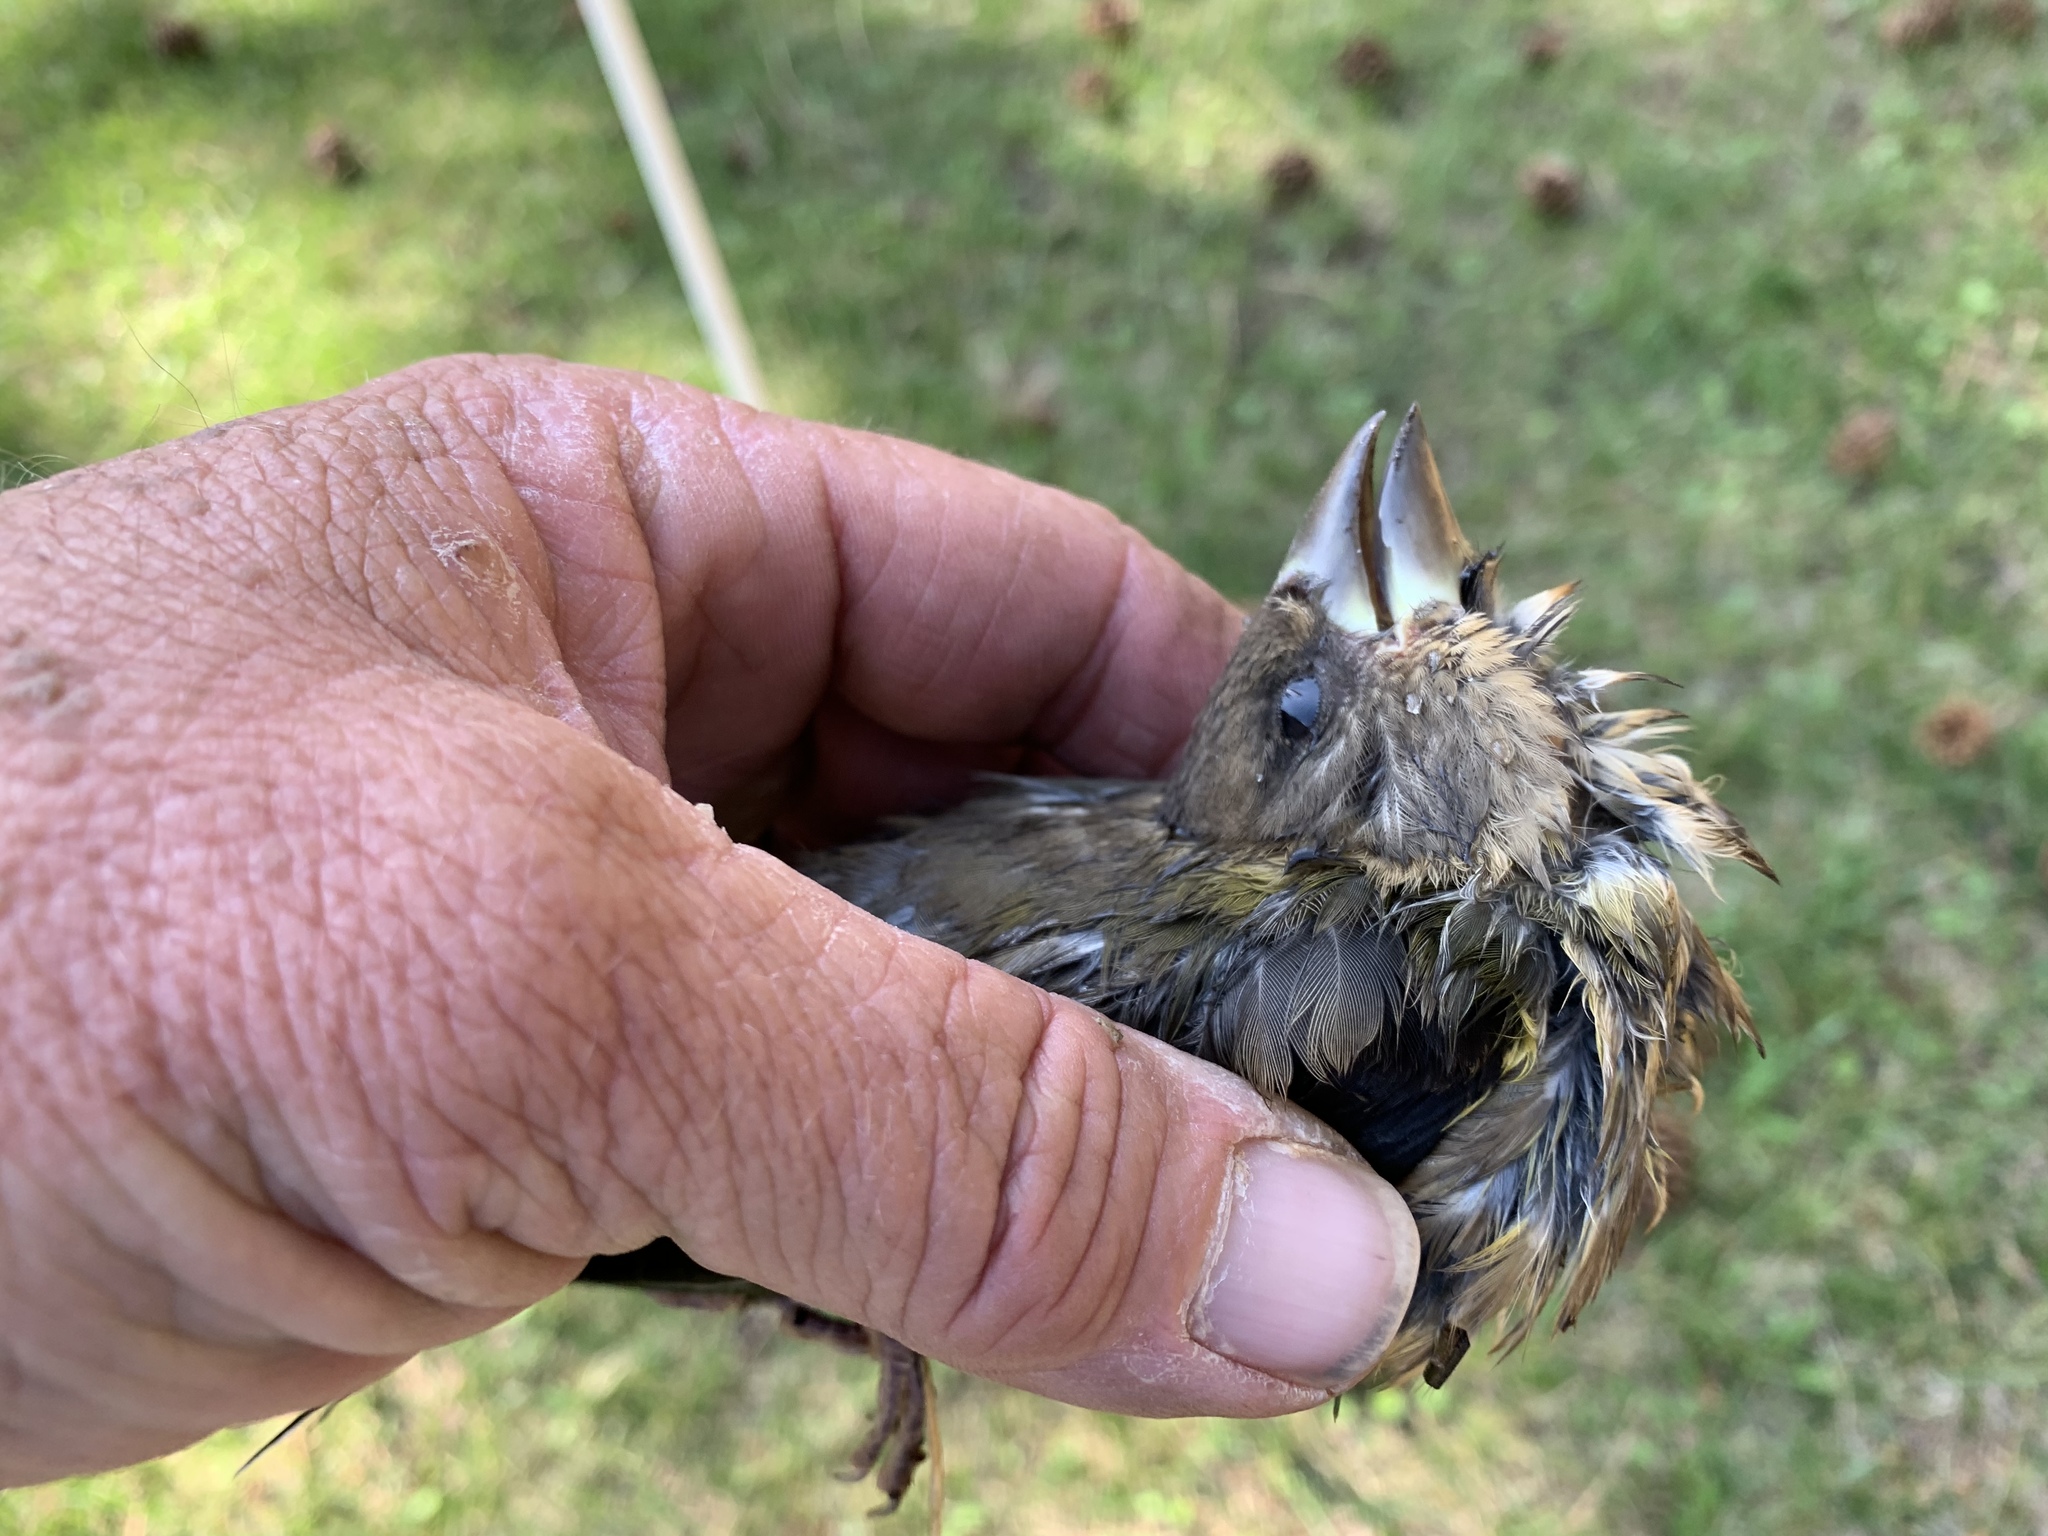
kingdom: Animalia
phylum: Chordata
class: Aves
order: Passeriformes
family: Fringillidae
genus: Hesperiphona
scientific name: Hesperiphona vespertina
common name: Evening grosbeak
